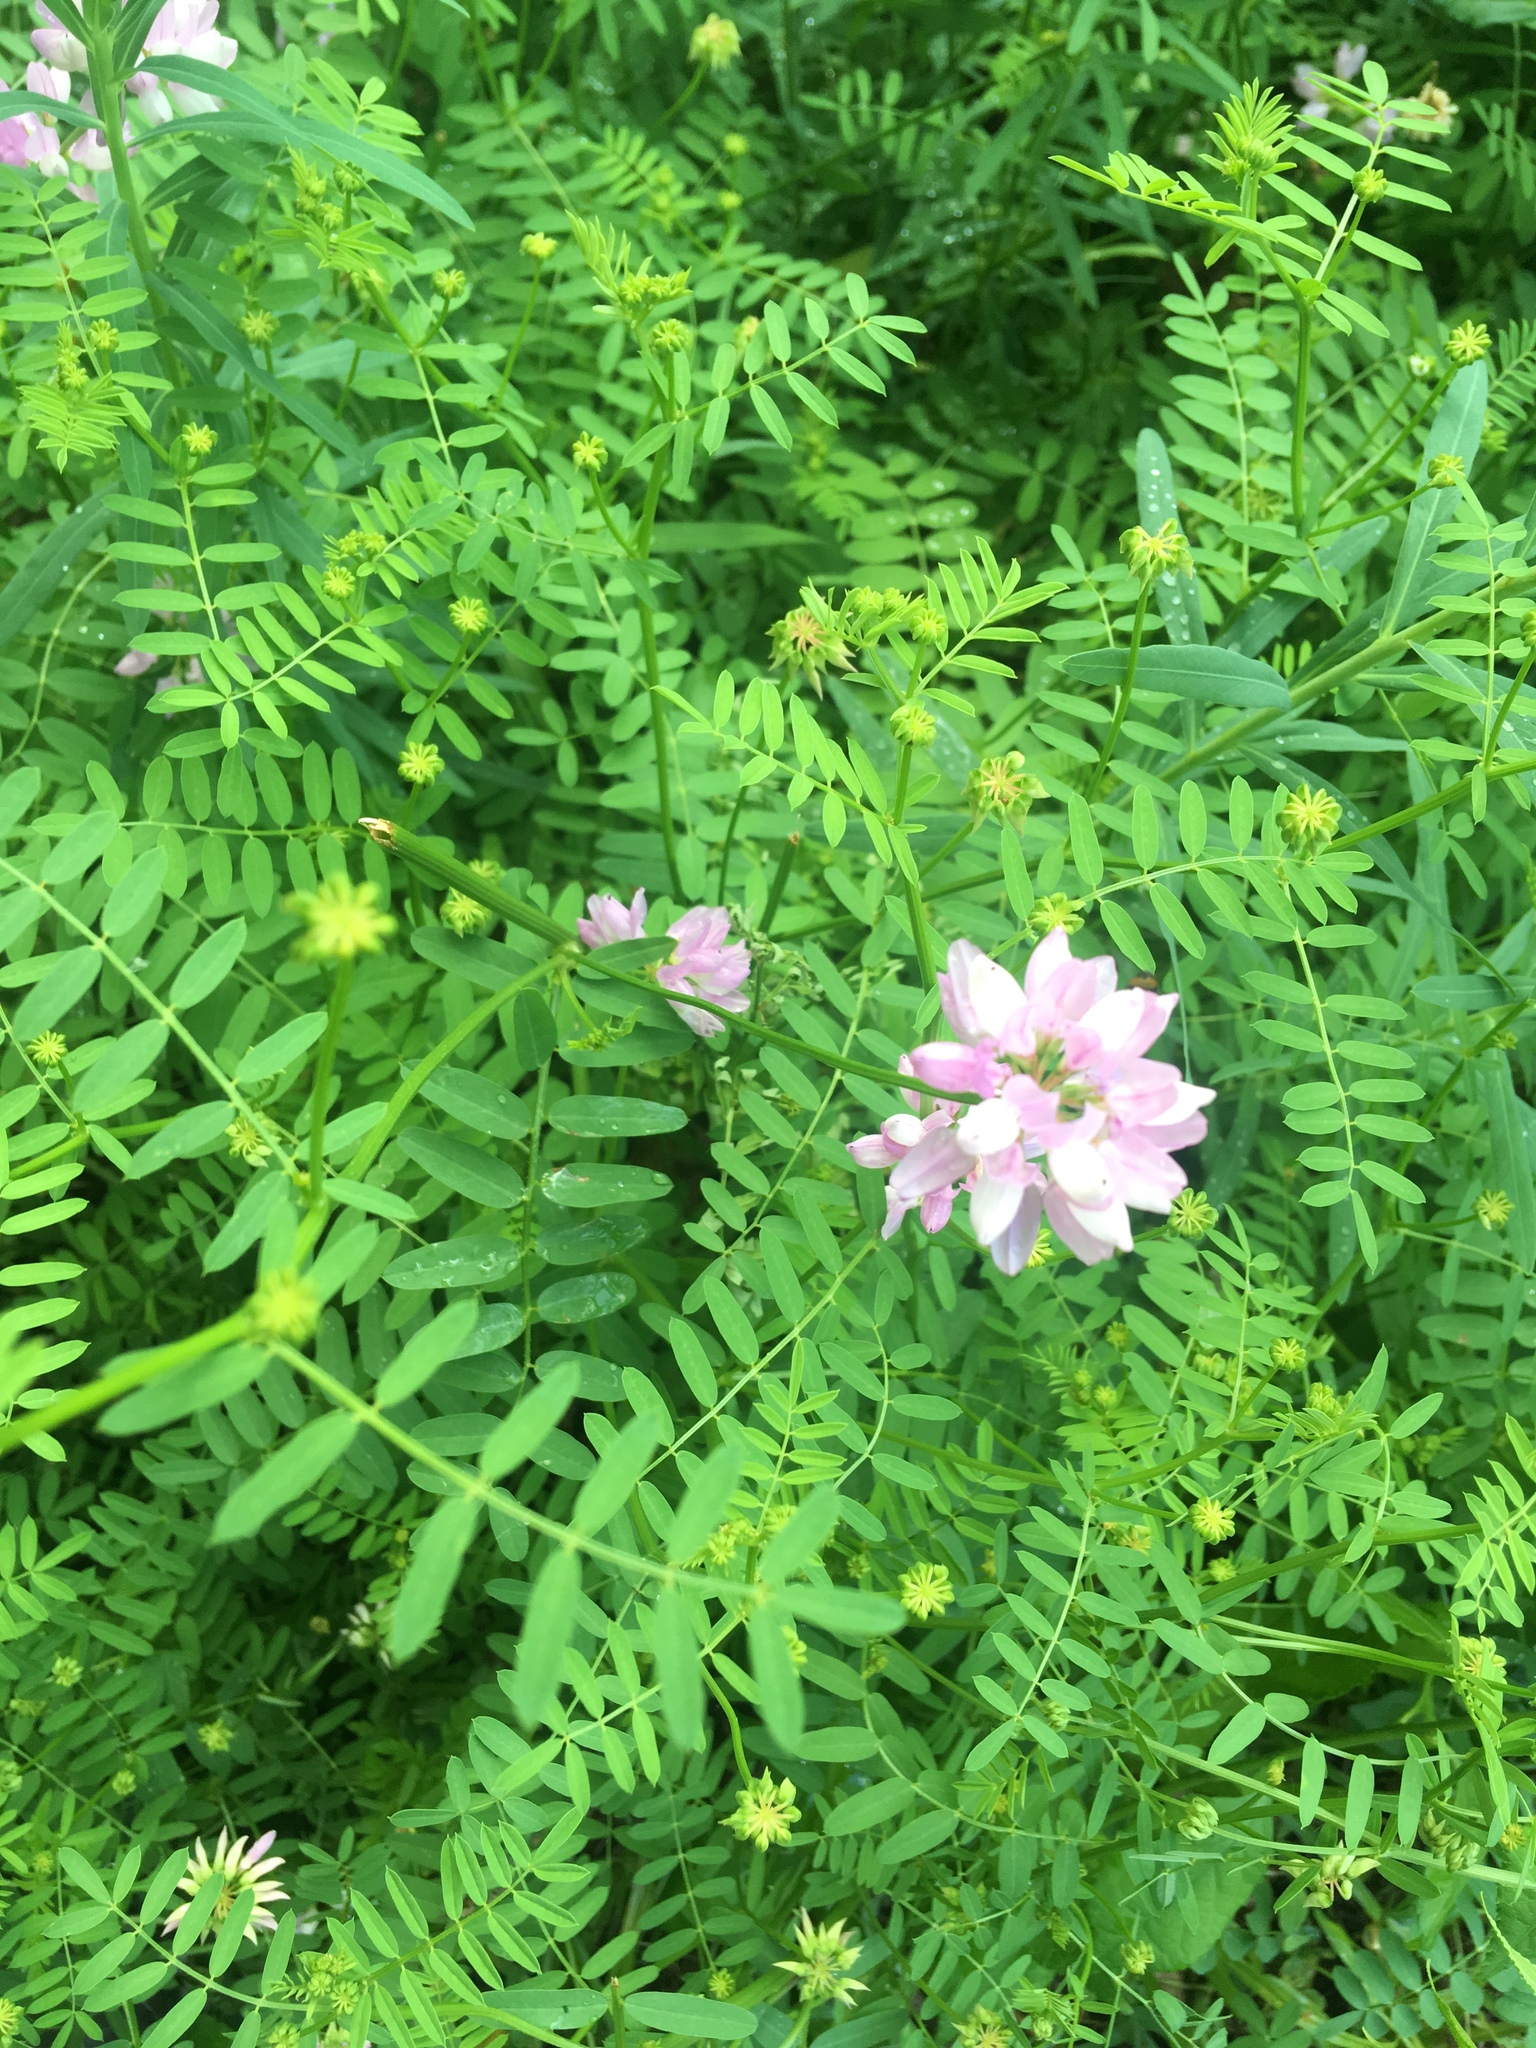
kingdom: Plantae
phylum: Tracheophyta
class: Magnoliopsida
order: Fabales
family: Fabaceae
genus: Coronilla
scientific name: Coronilla varia
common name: Crownvetch
